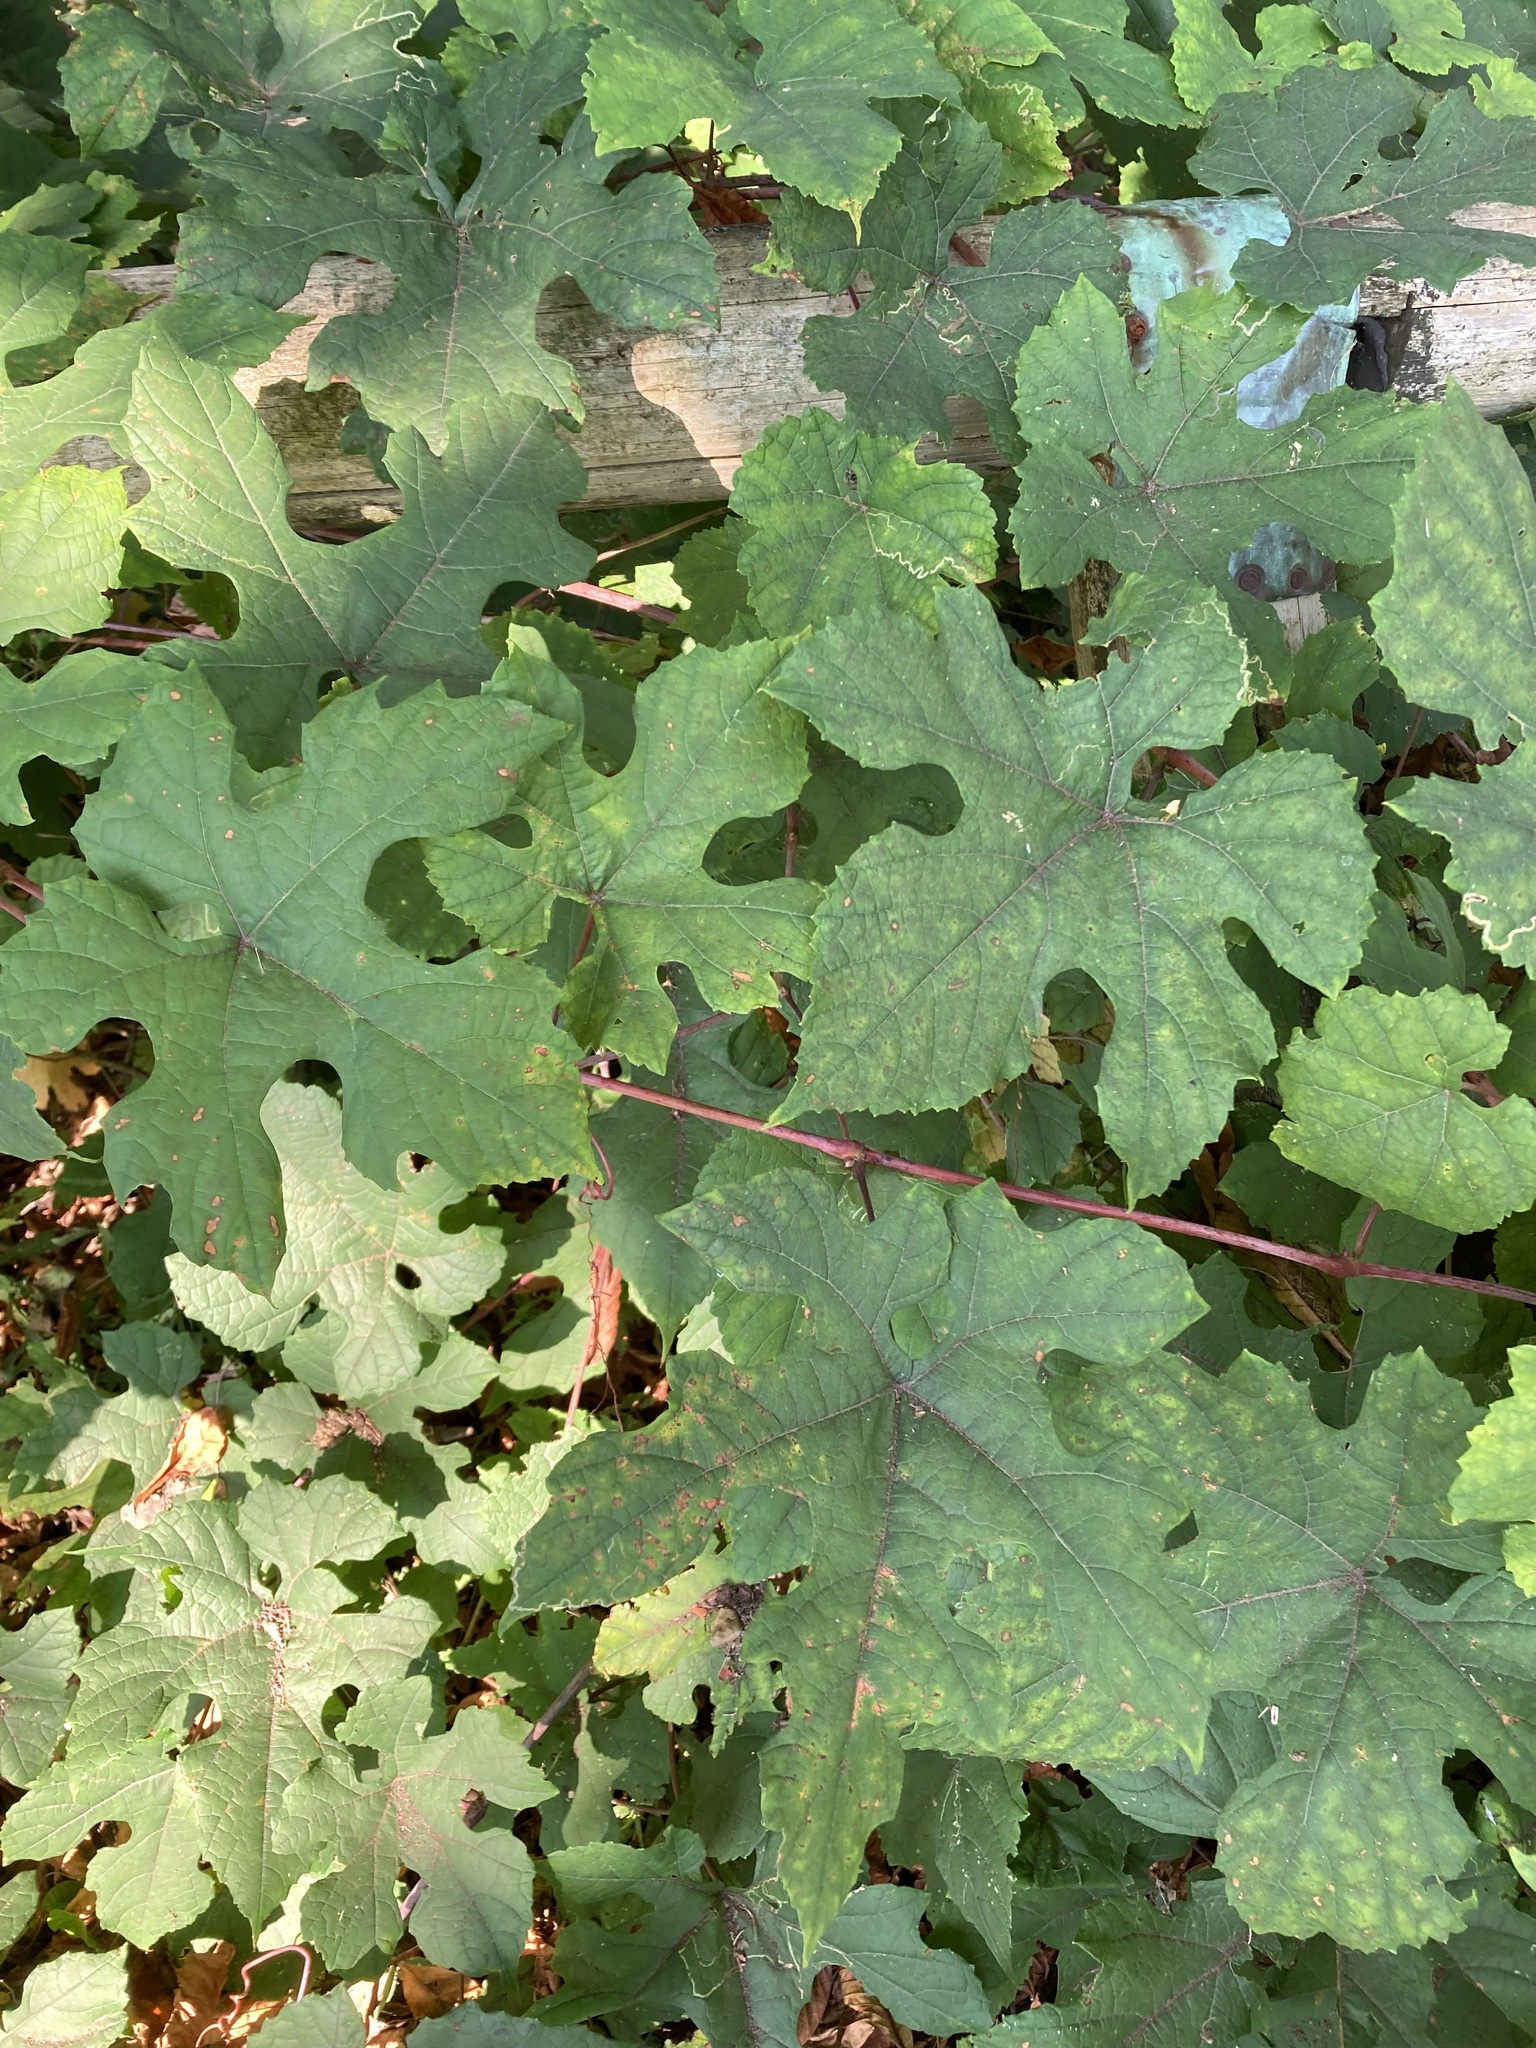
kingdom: Plantae
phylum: Tracheophyta
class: Magnoliopsida
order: Vitales
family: Vitaceae
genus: Vitis
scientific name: Vitis aestivalis
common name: Pigeon grape
